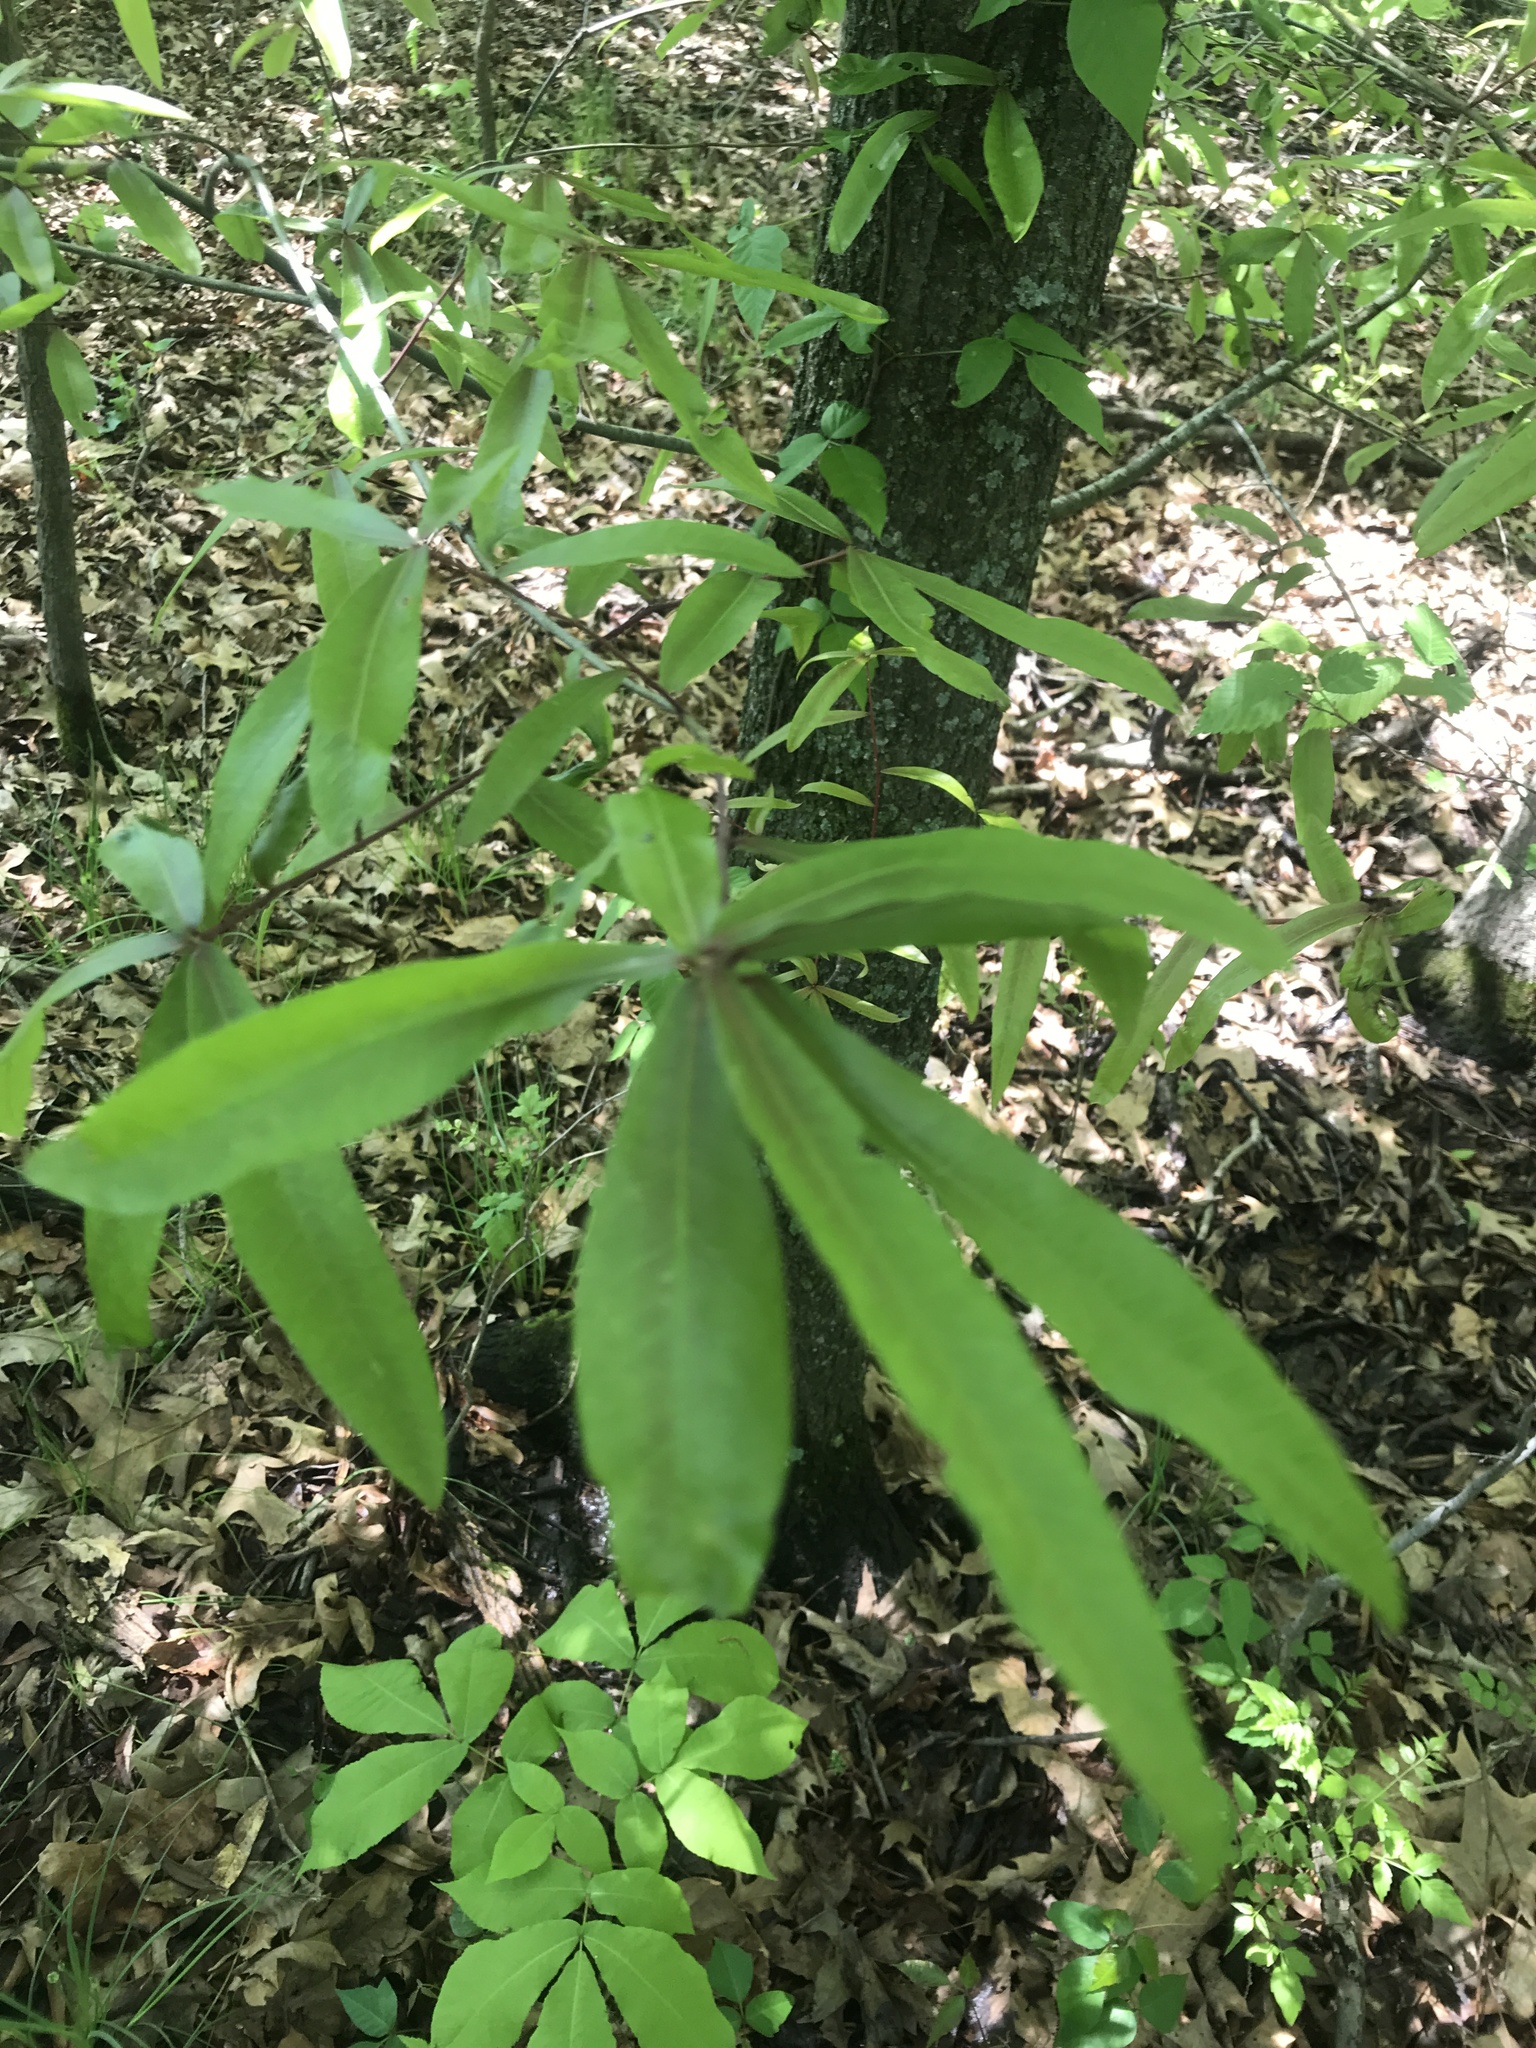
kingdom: Plantae
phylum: Tracheophyta
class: Magnoliopsida
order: Fagales
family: Fagaceae
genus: Quercus
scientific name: Quercus phellos
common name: Willow oak
